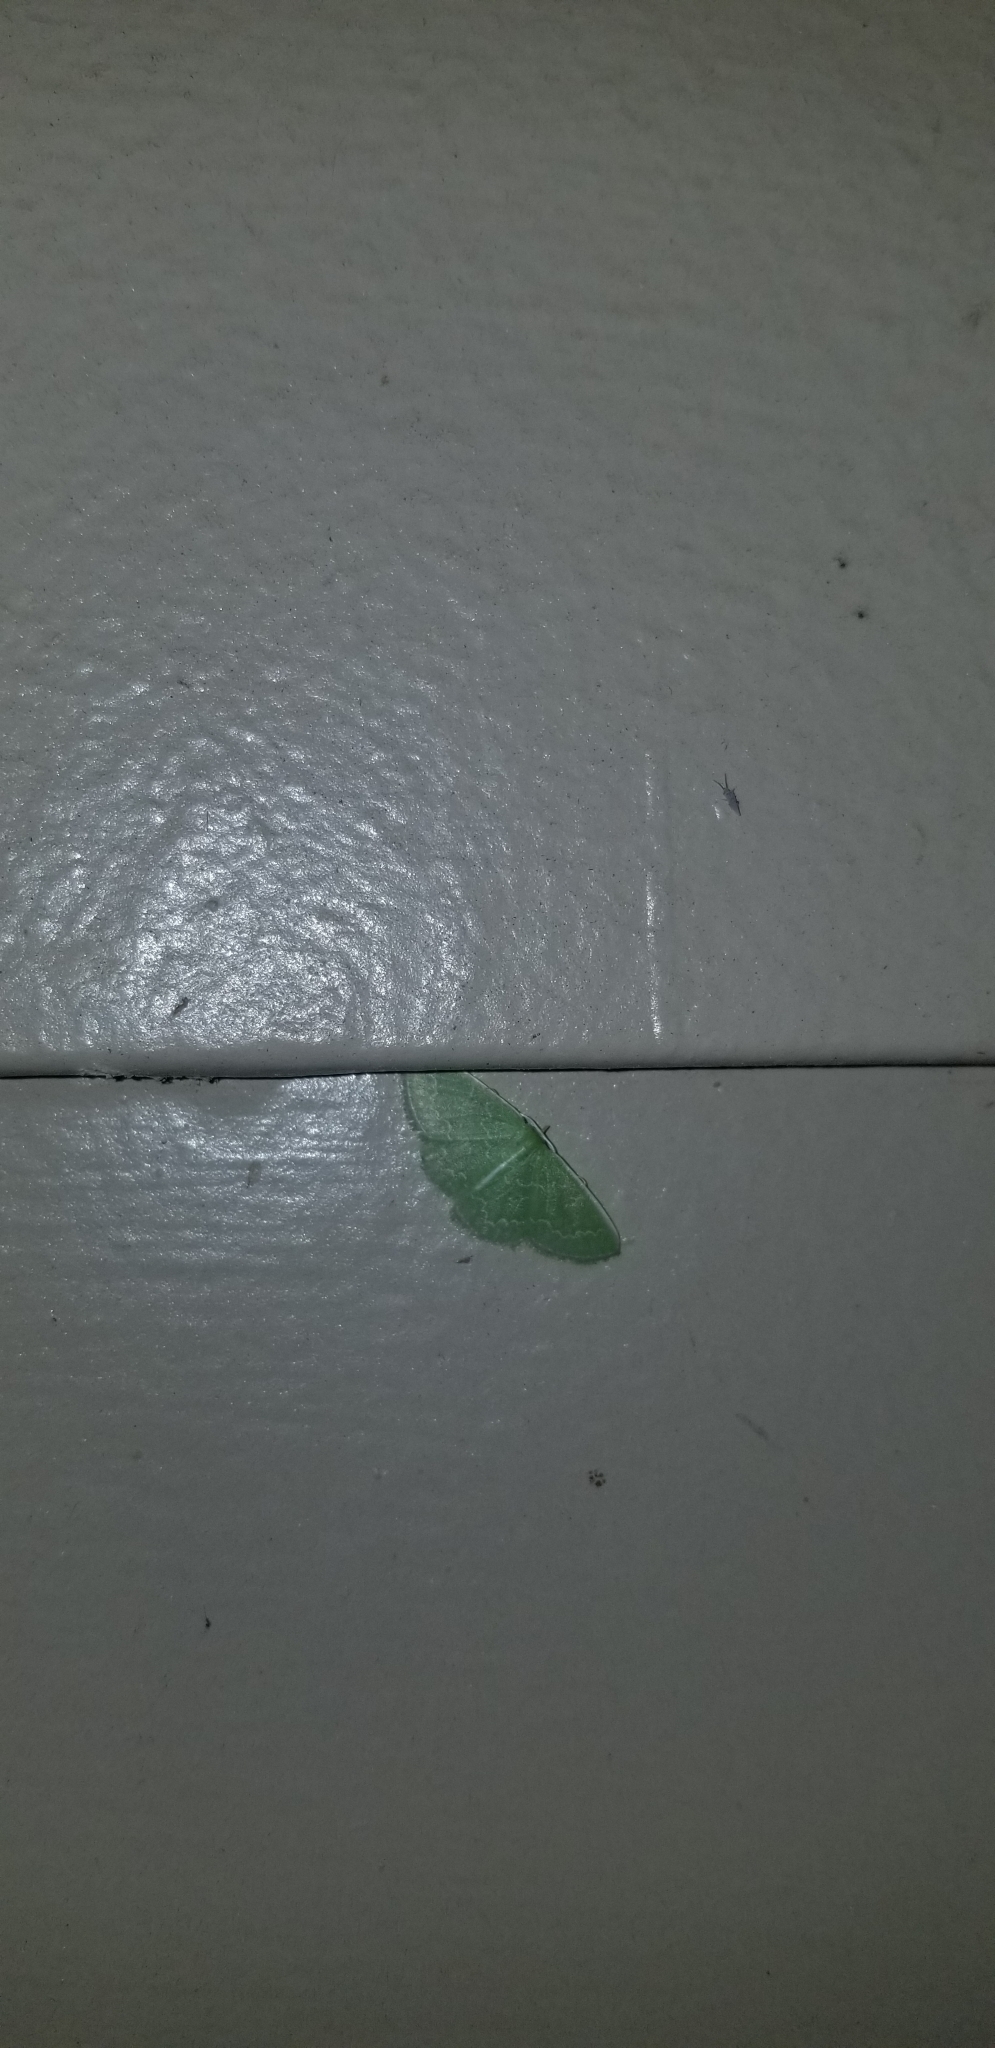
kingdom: Animalia
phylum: Arthropoda
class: Insecta
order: Lepidoptera
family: Geometridae
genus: Synchlora
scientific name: Synchlora frondaria
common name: Southern emerald
